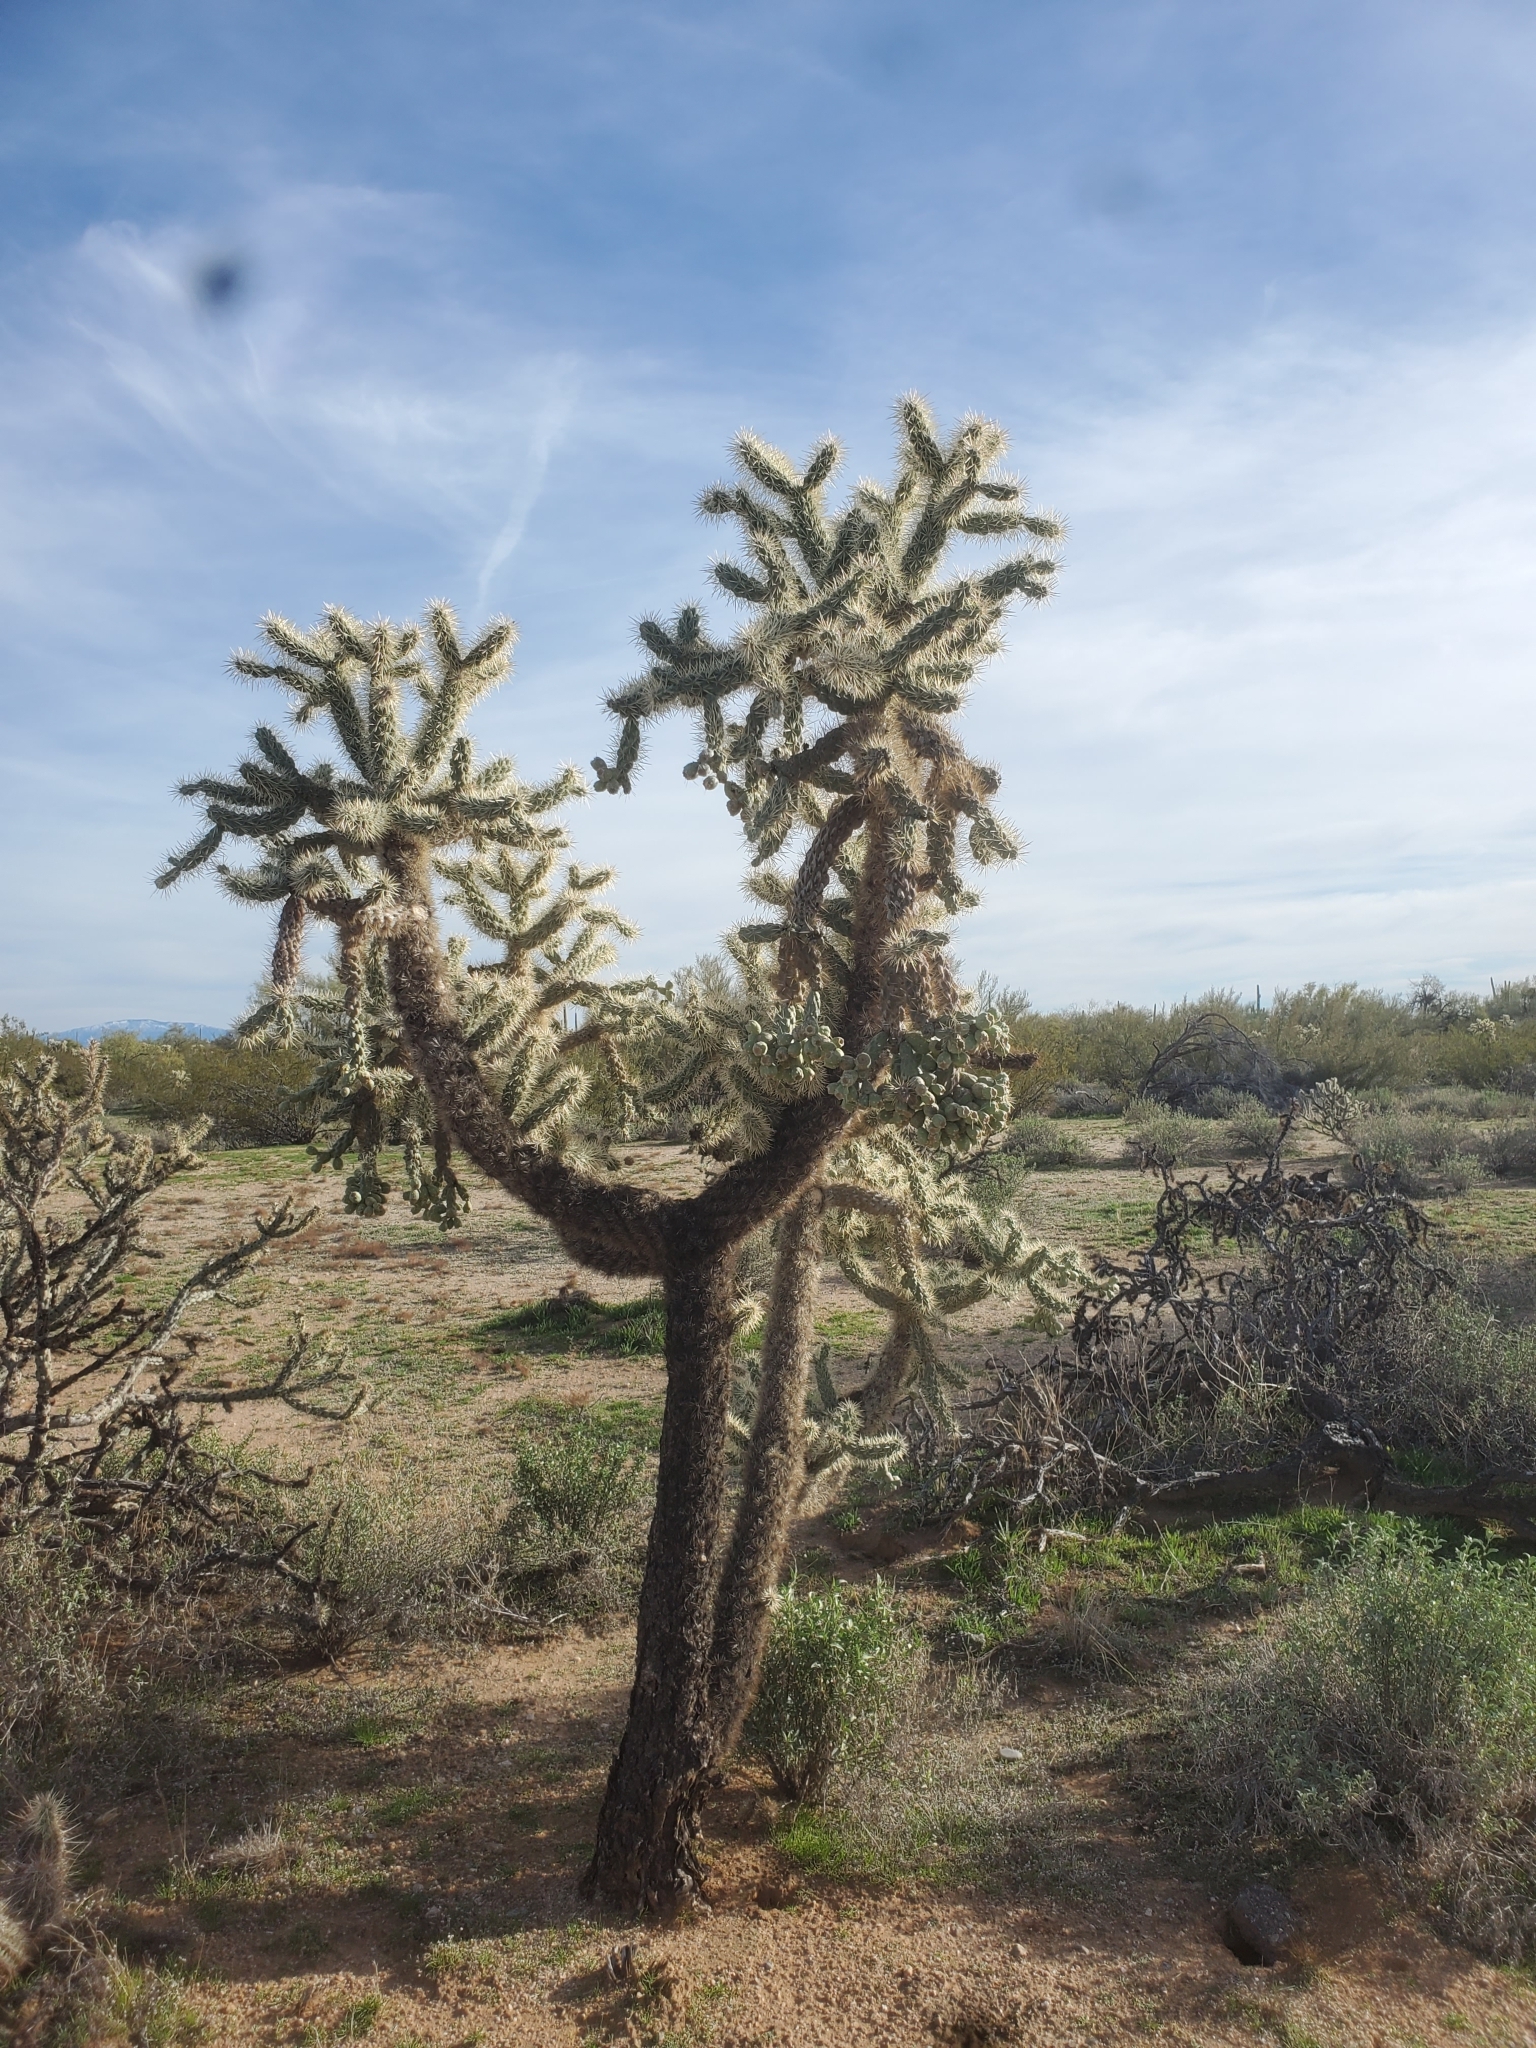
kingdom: Plantae
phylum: Tracheophyta
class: Magnoliopsida
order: Caryophyllales
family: Cactaceae
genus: Cylindropuntia
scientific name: Cylindropuntia fulgida
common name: Jumping cholla
